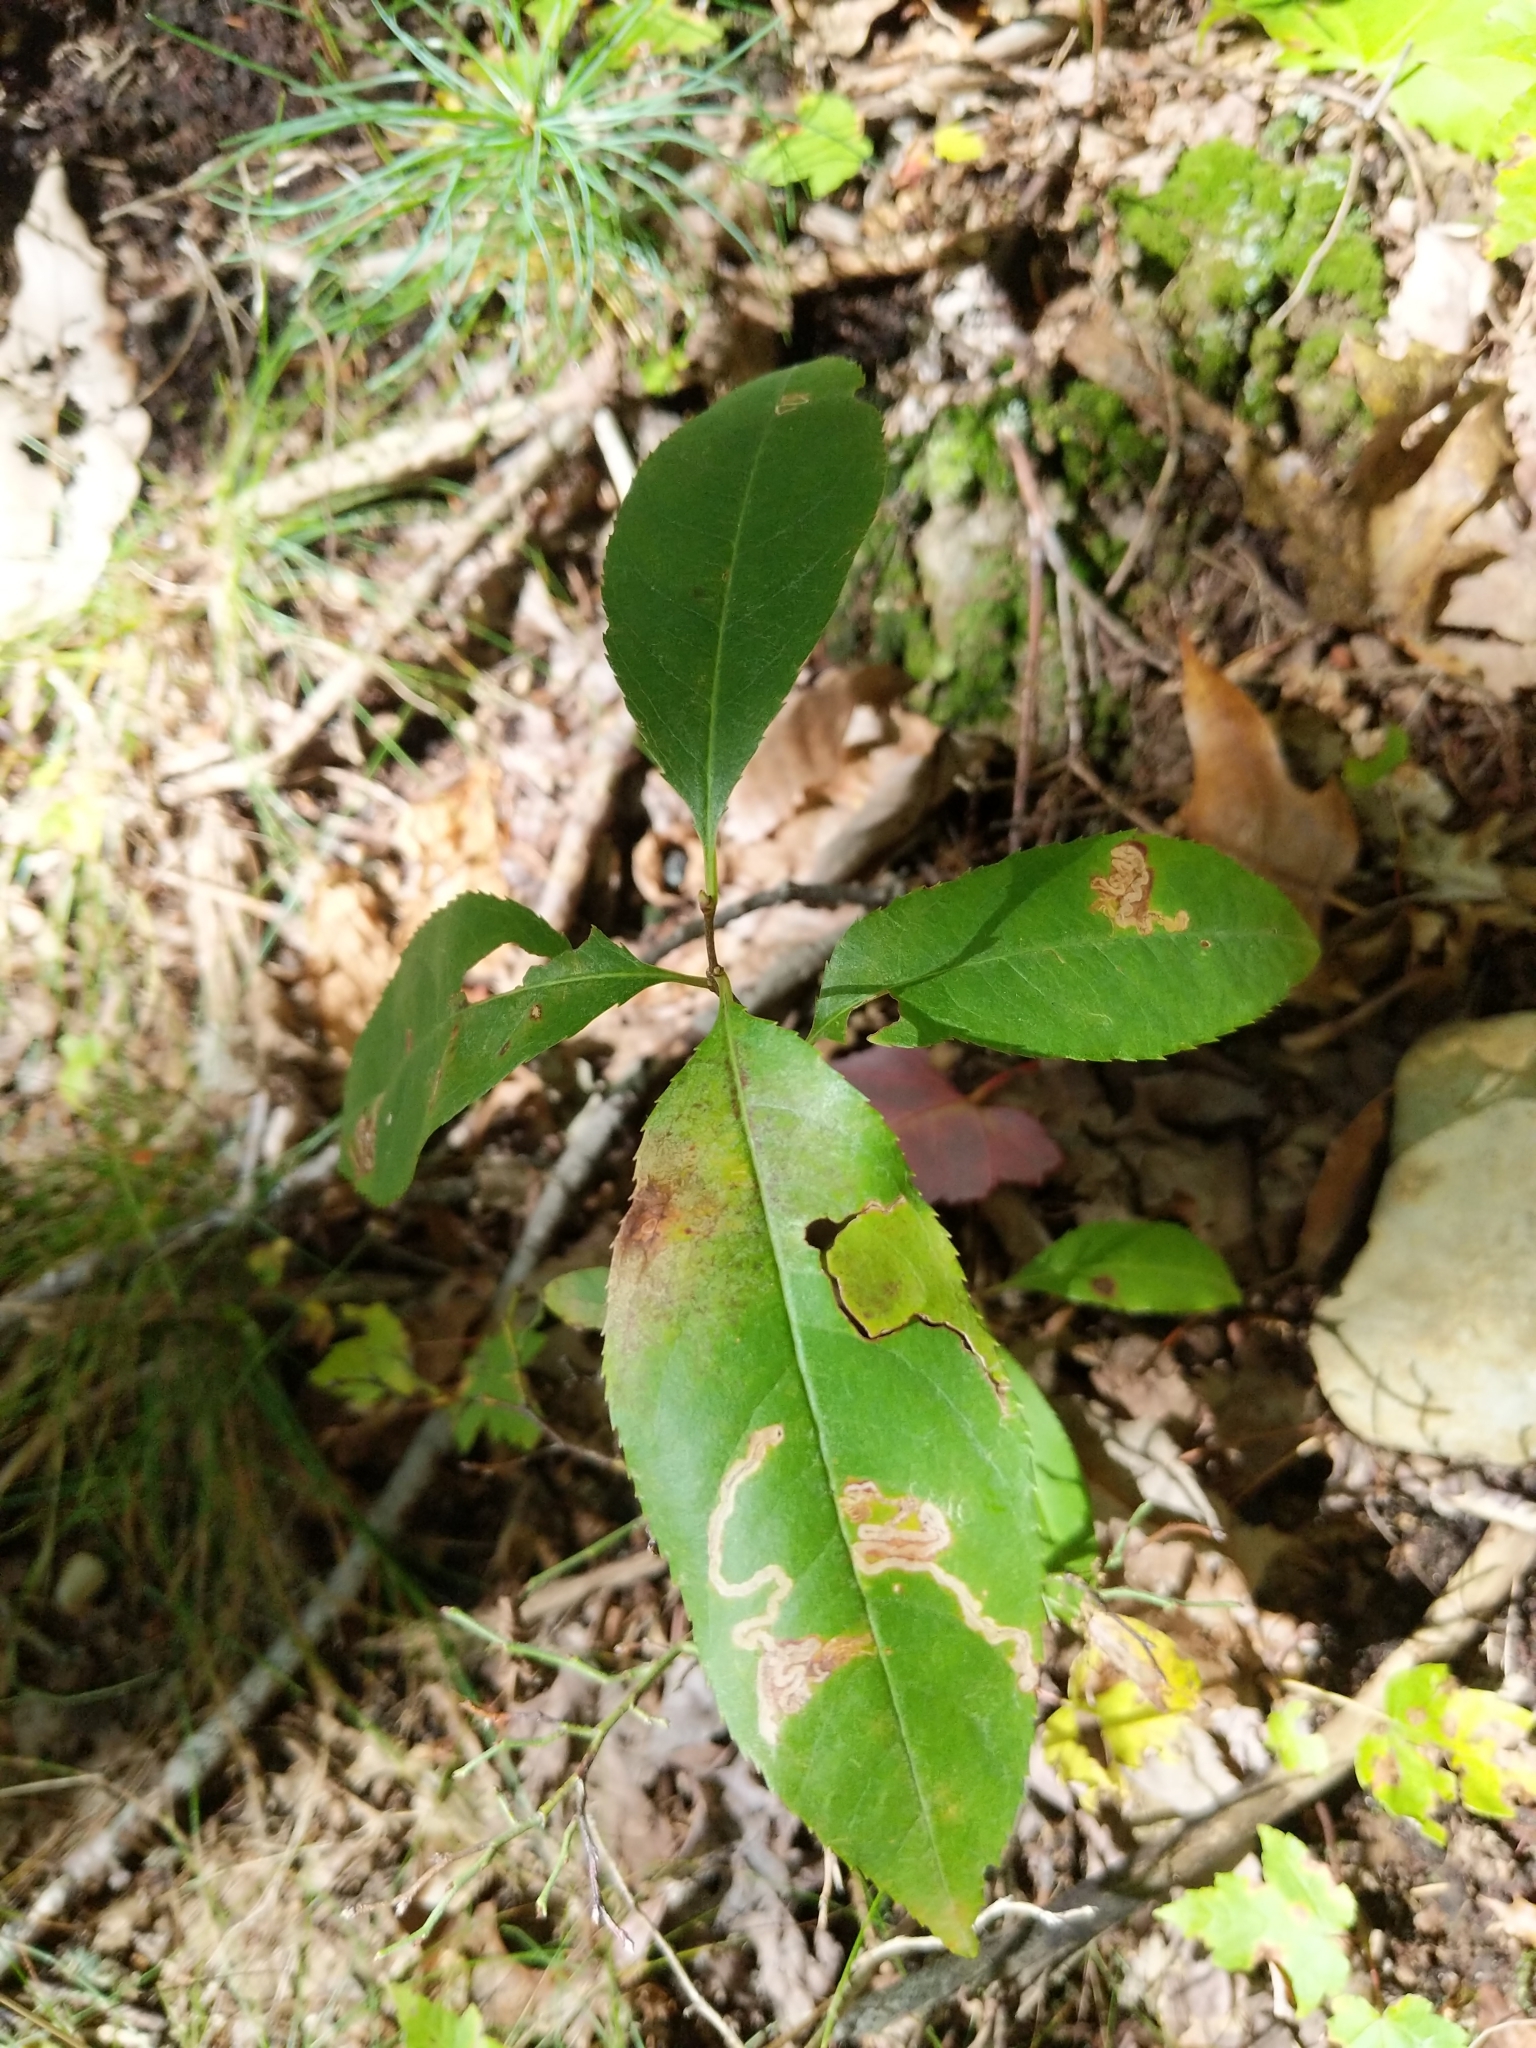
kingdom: Animalia
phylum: Arthropoda
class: Insecta
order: Lepidoptera
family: Nepticulidae
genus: Stigmella
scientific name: Stigmella prunifoliella
